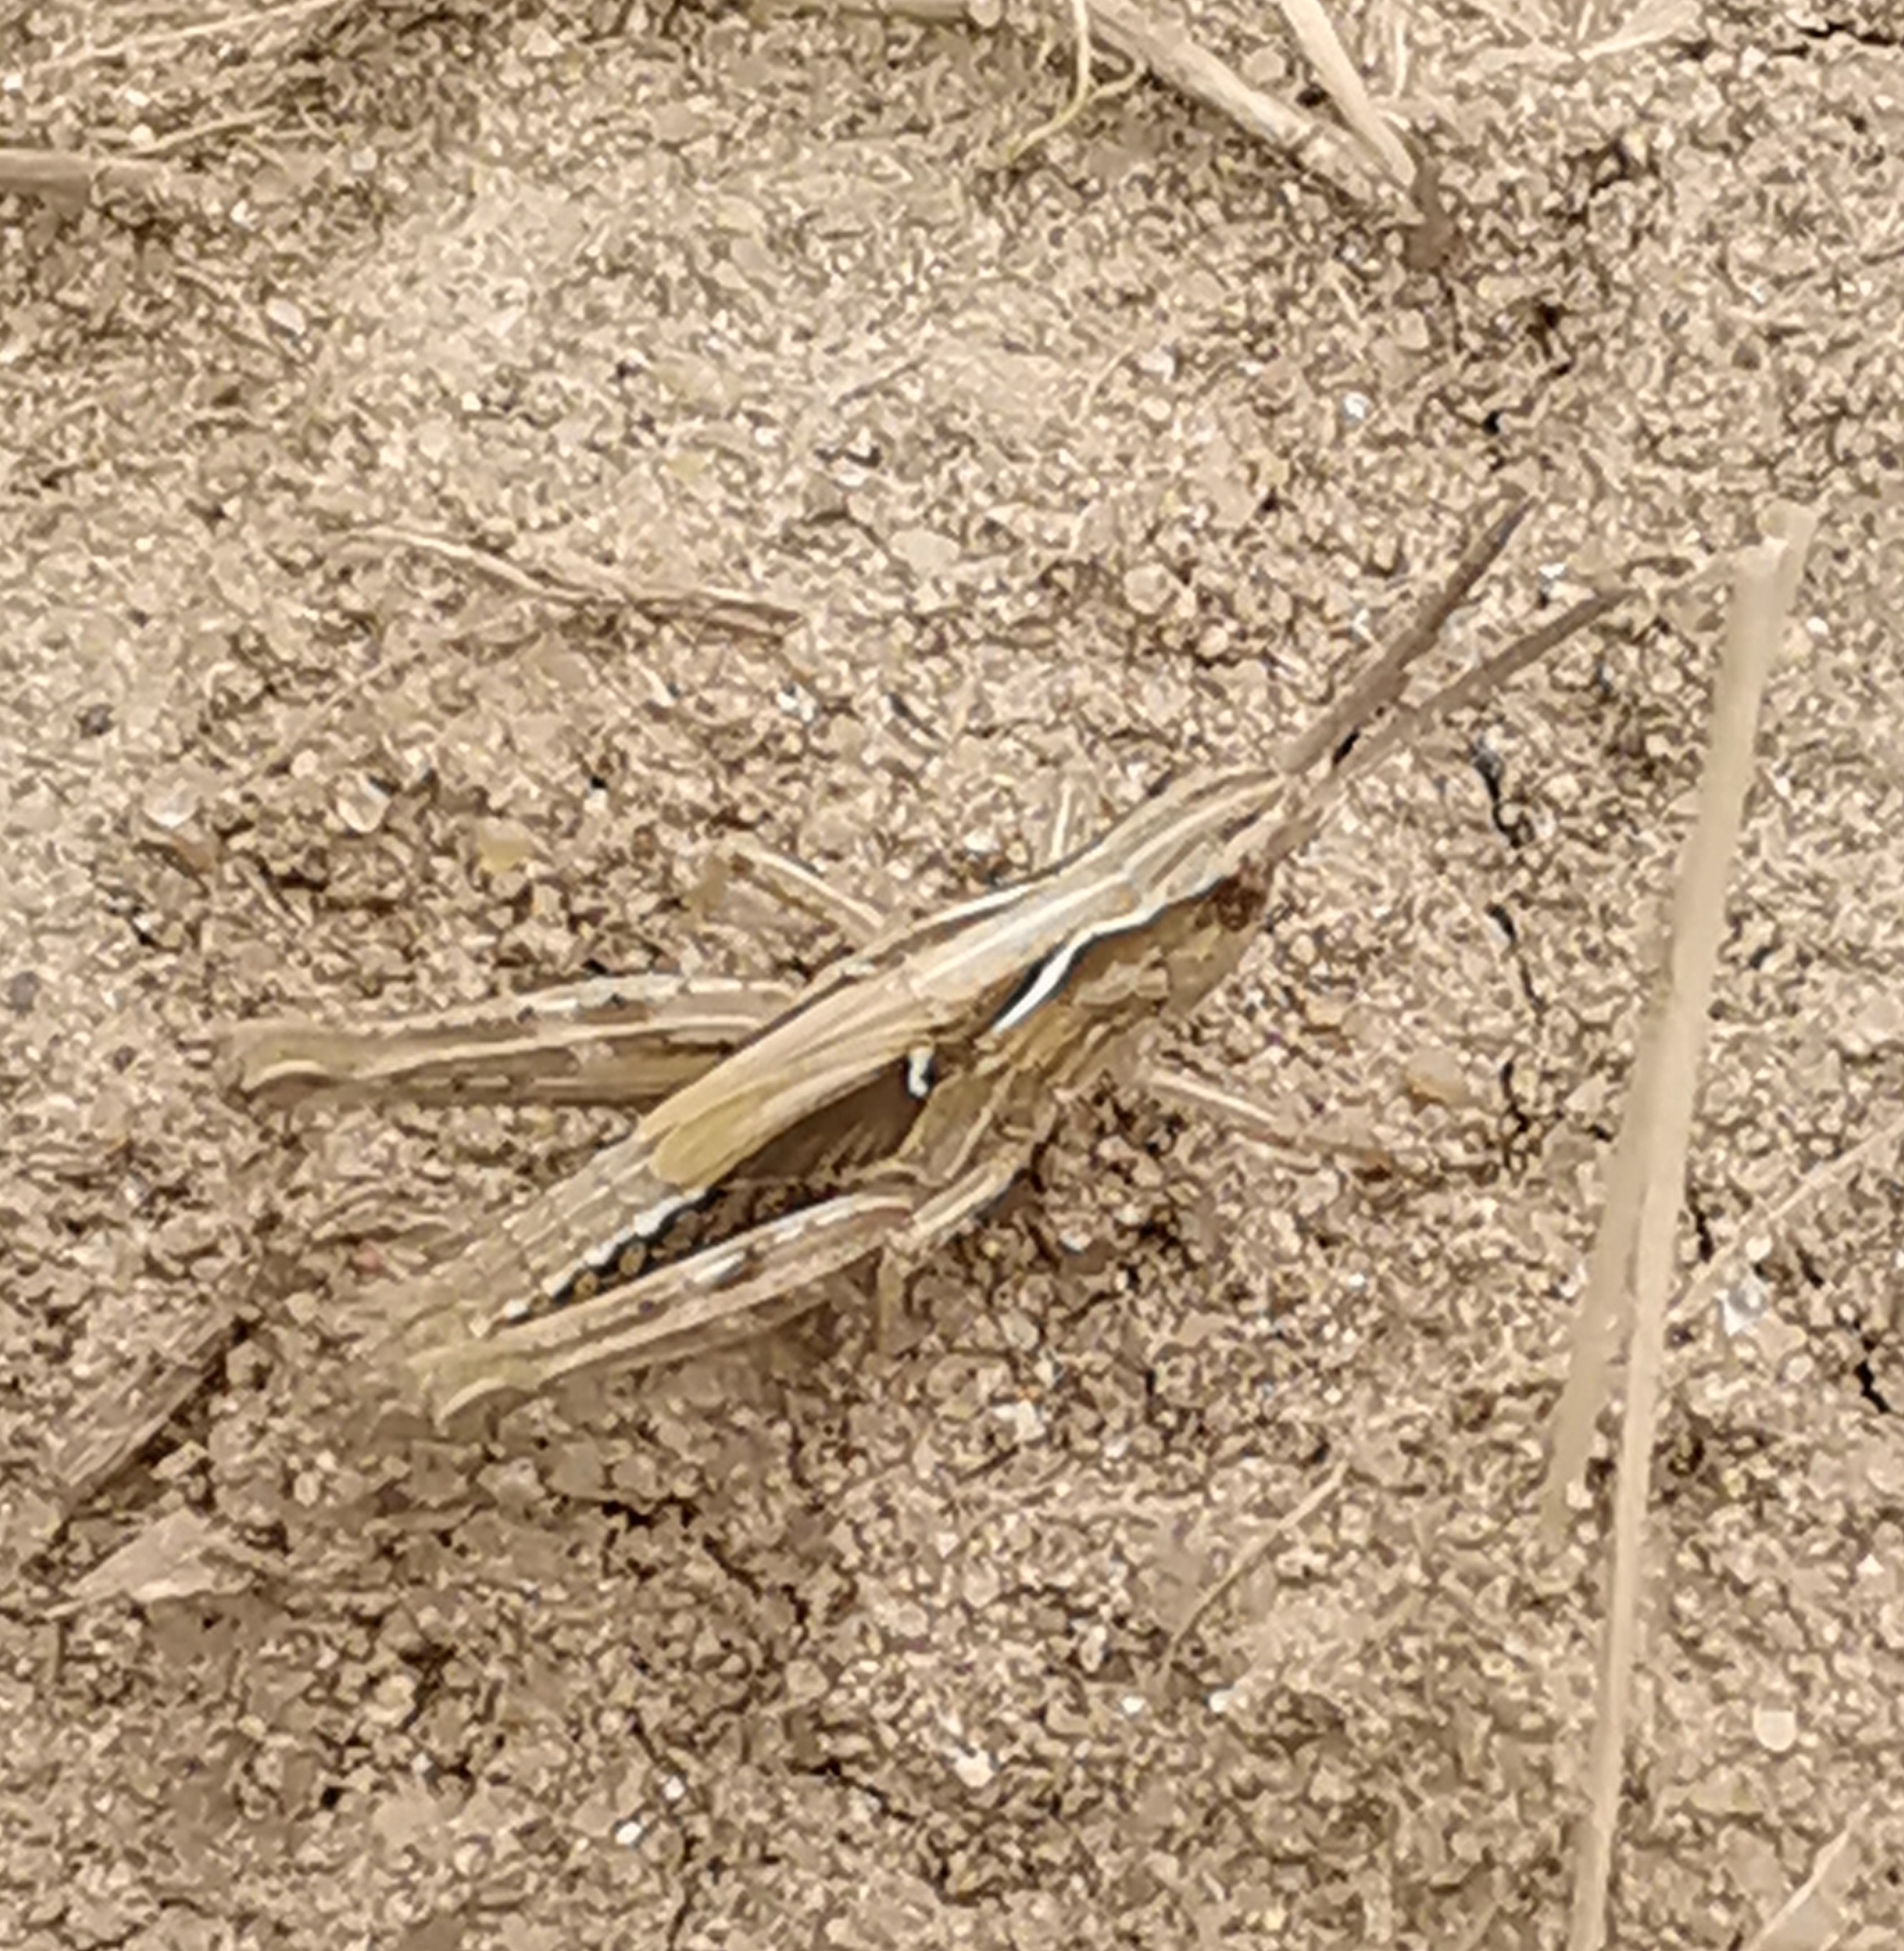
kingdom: Animalia
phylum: Arthropoda
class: Insecta
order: Orthoptera
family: Acrididae
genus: Chorthippus
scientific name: Chorthippus brunneus
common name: Field grasshopper
